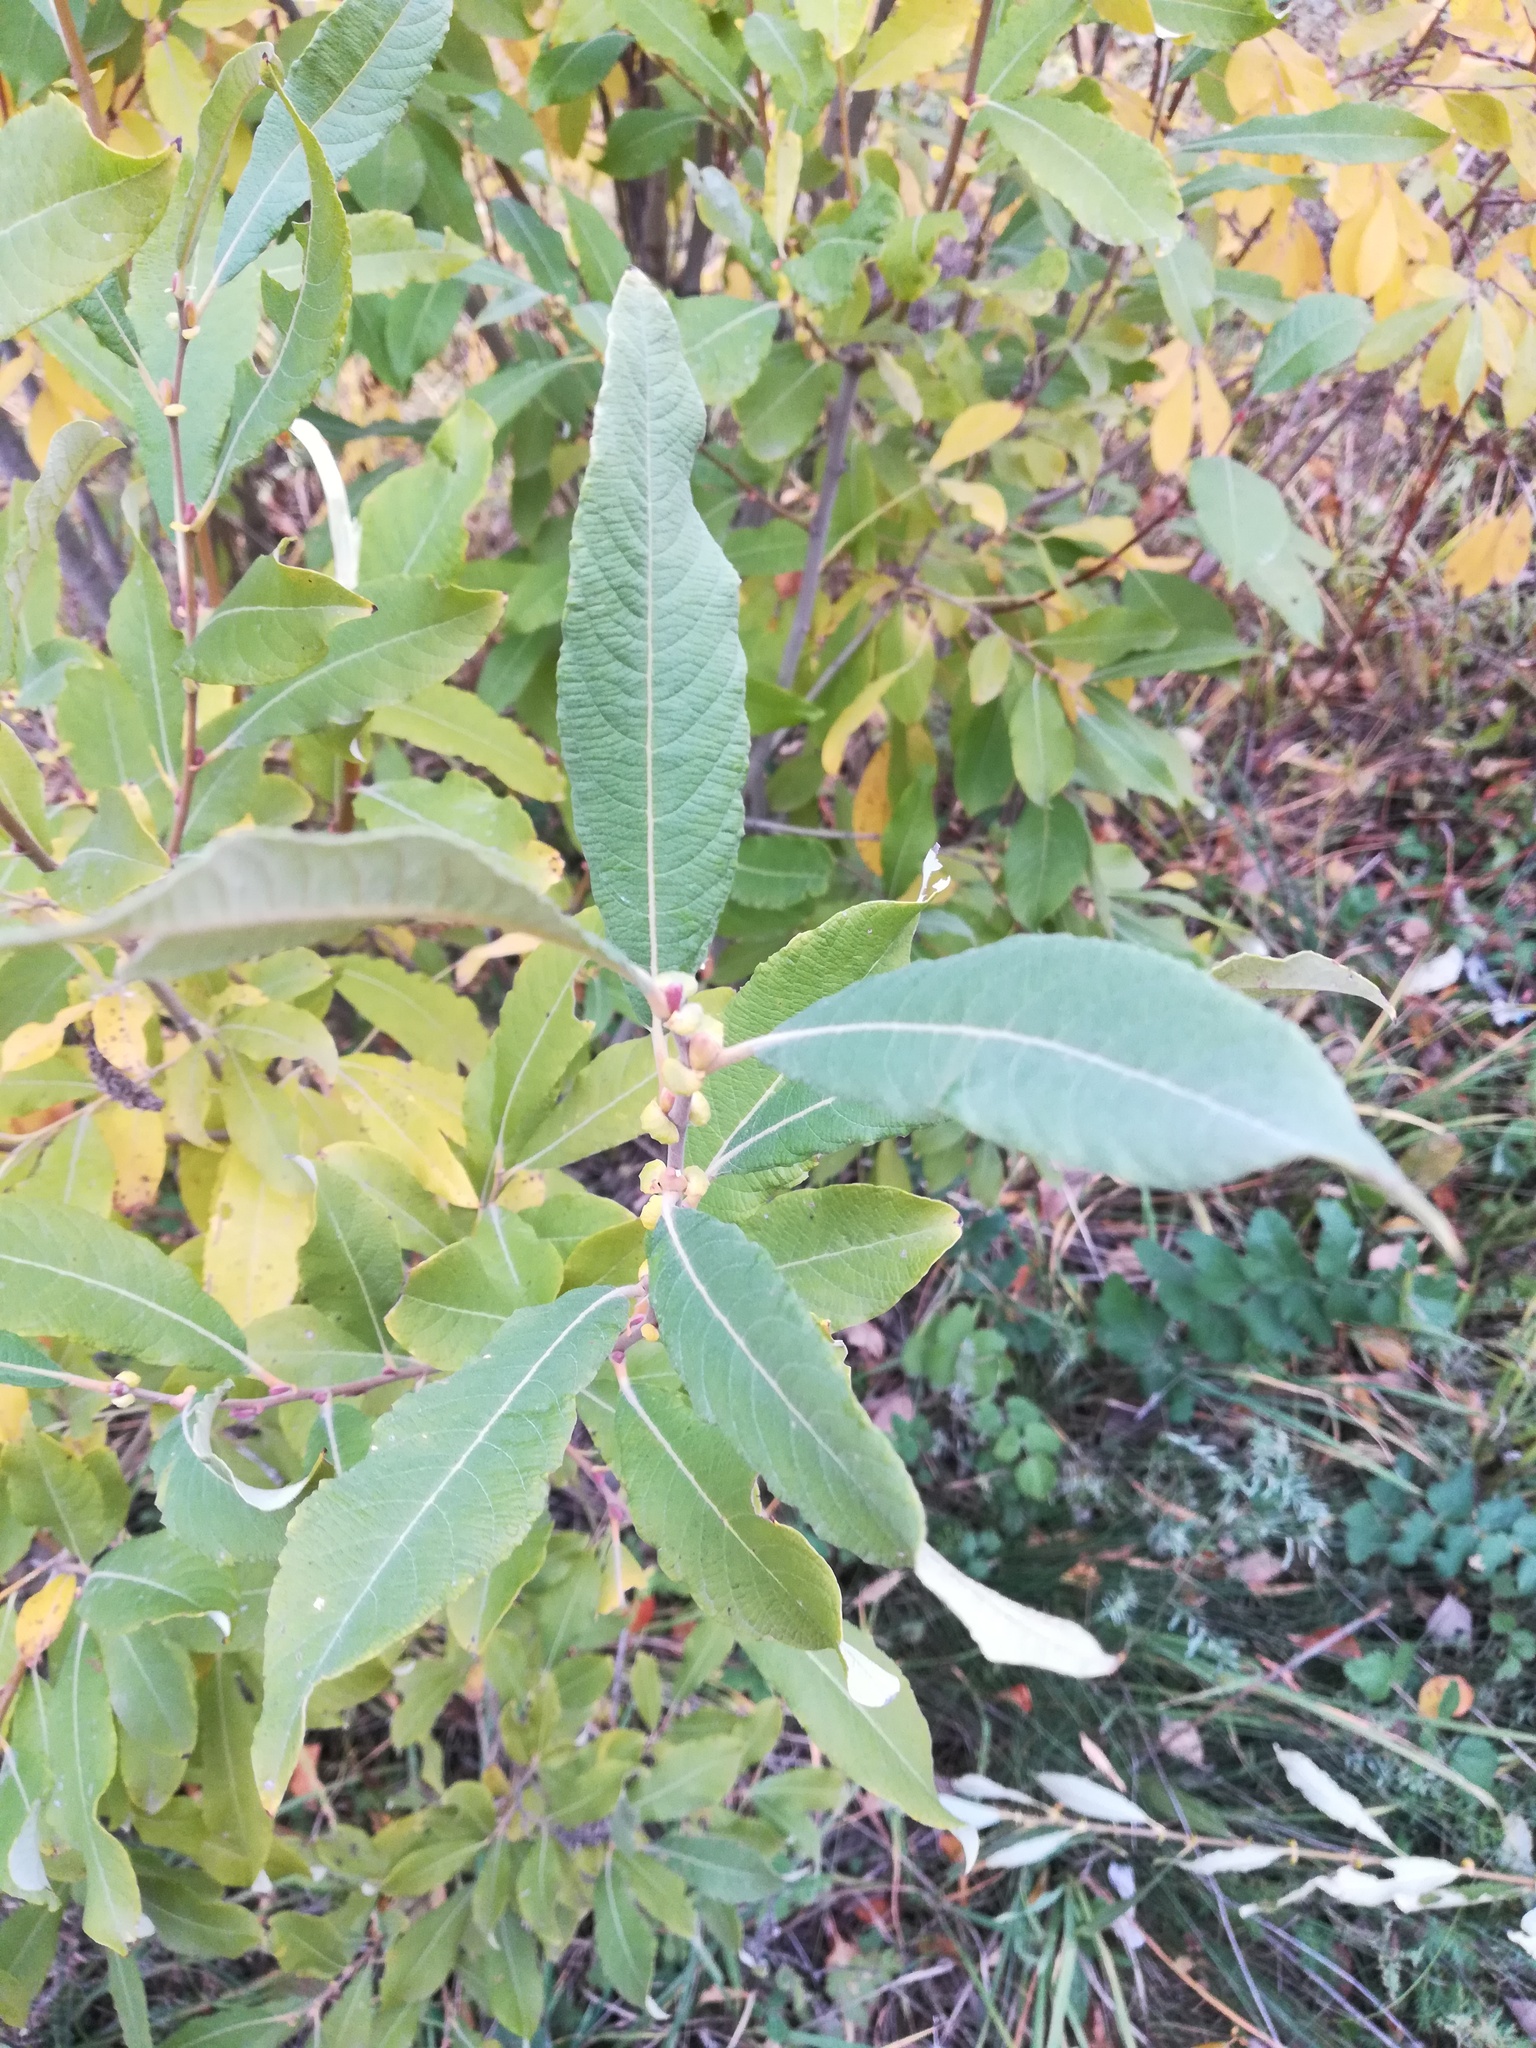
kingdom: Plantae
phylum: Tracheophyta
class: Magnoliopsida
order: Malpighiales
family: Salicaceae
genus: Salix
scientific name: Salix cinerea
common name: Common sallow
